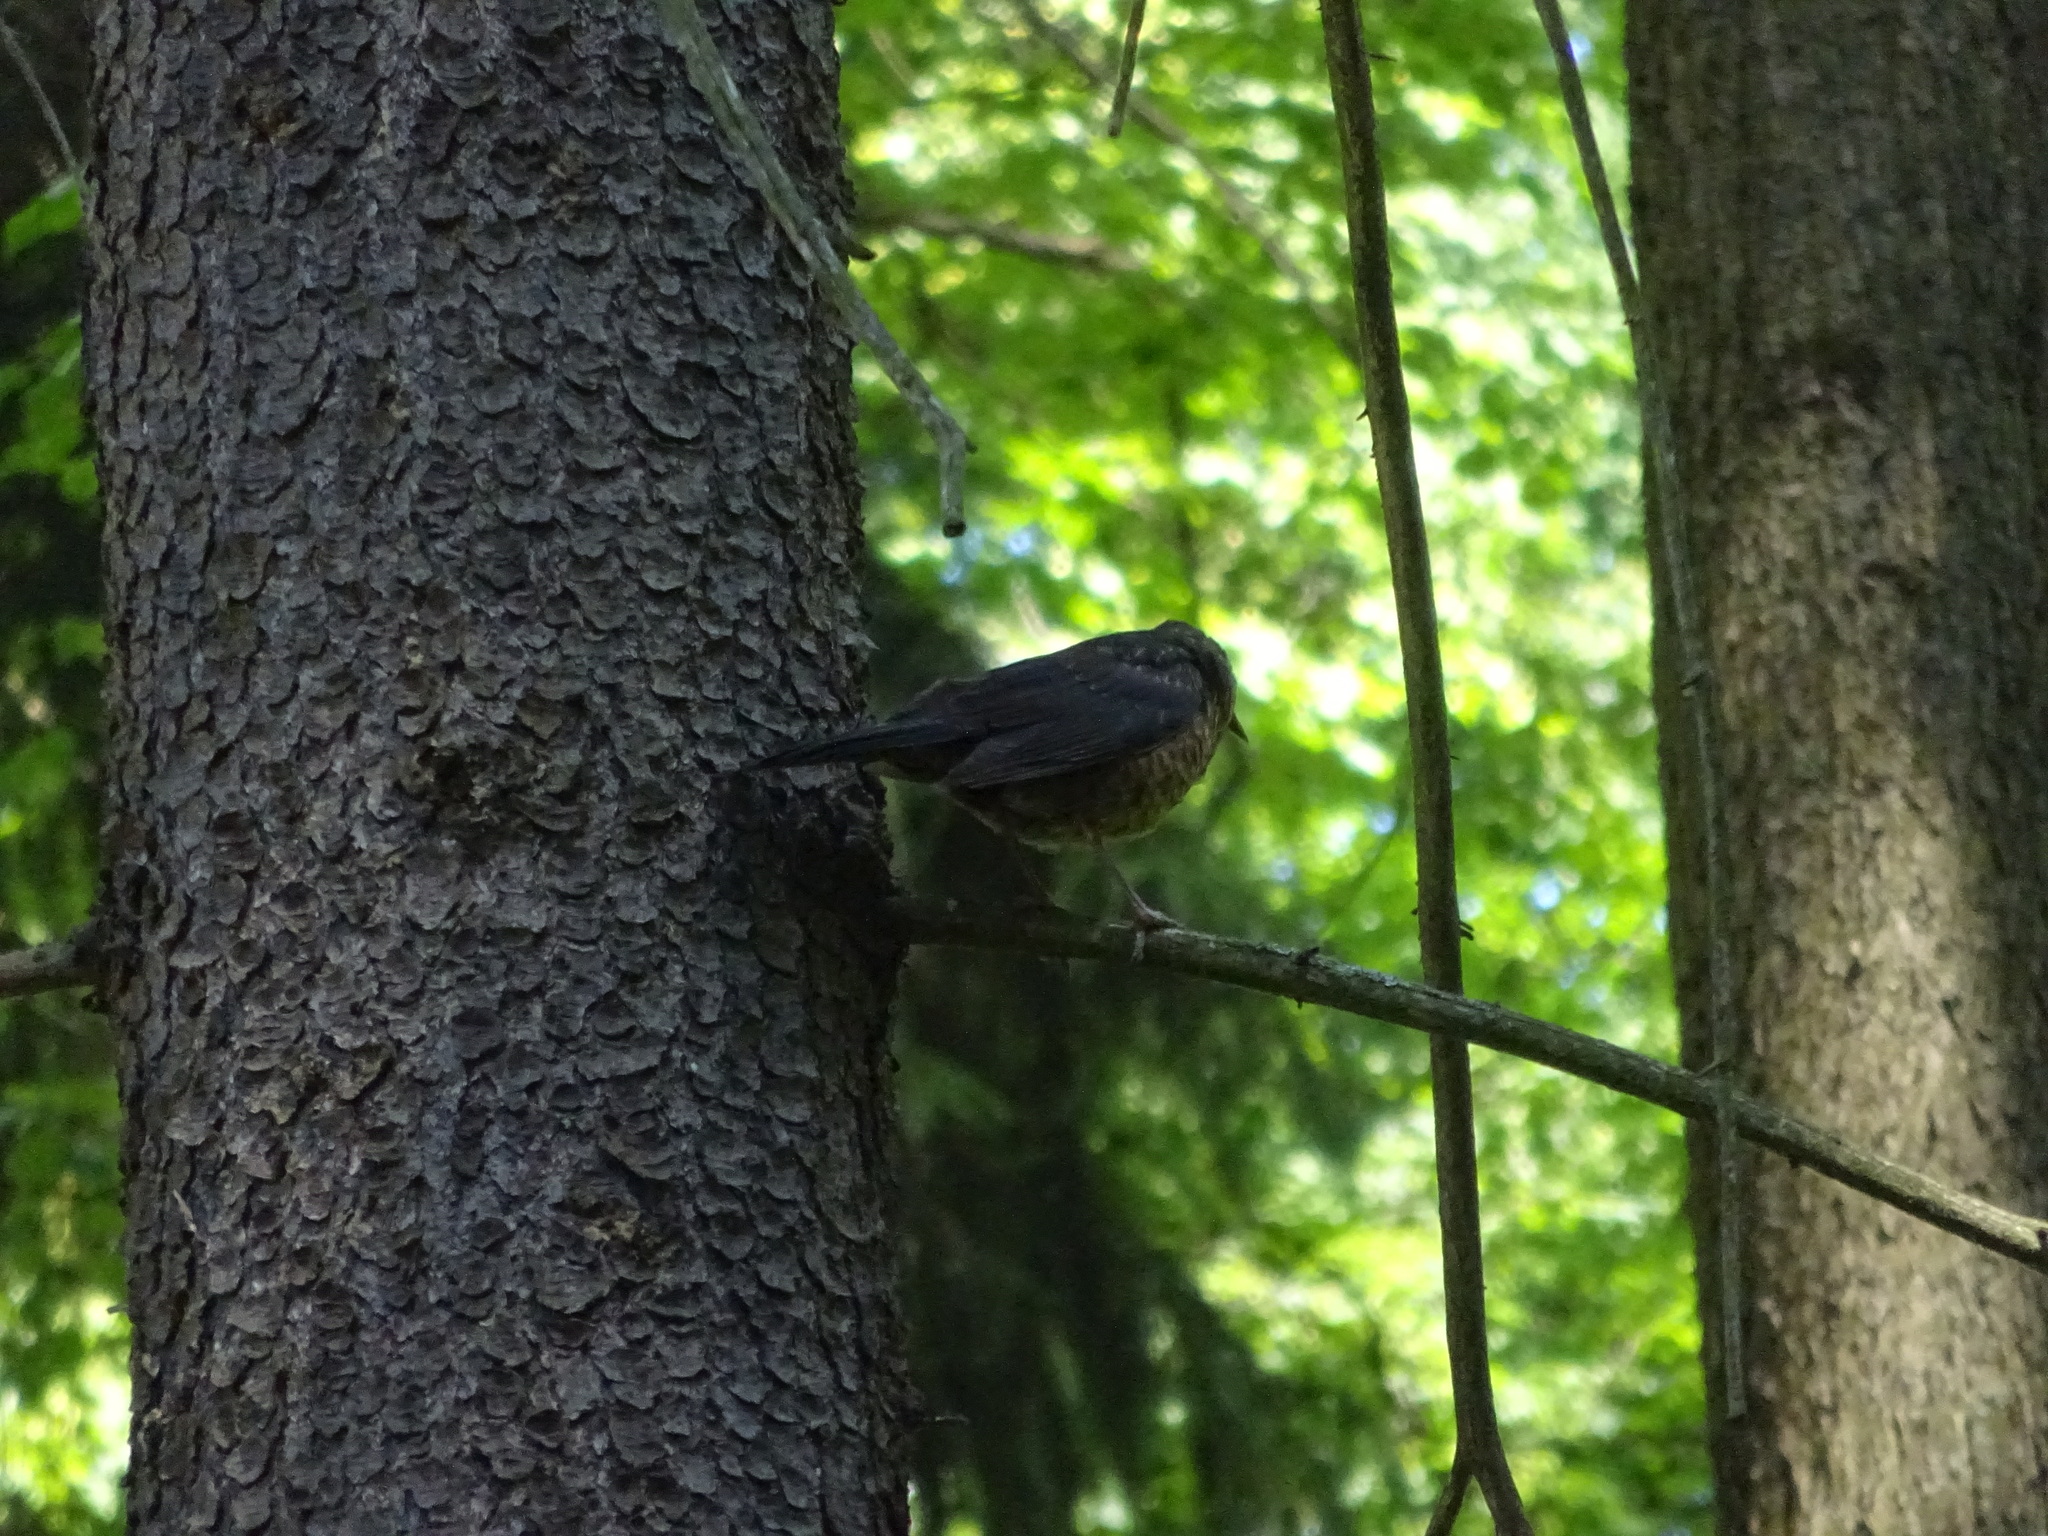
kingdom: Animalia
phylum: Chordata
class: Aves
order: Passeriformes
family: Turdidae
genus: Turdus
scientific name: Turdus merula
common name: Common blackbird
